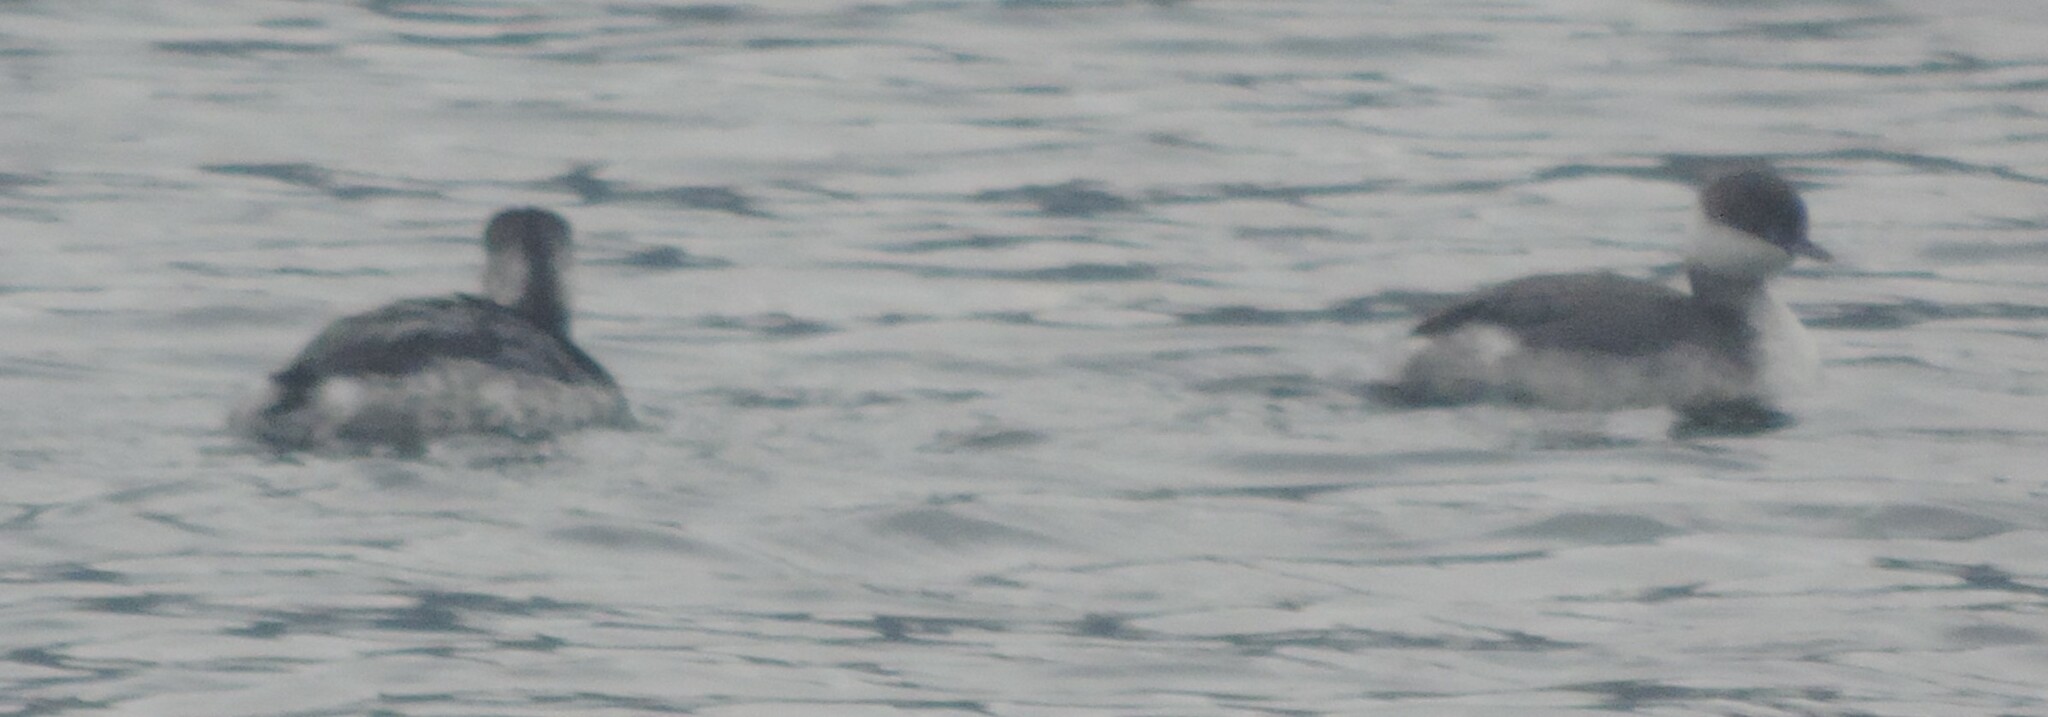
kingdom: Animalia
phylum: Chordata
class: Aves
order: Podicipediformes
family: Podicipedidae
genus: Podiceps
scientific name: Podiceps auritus
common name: Horned grebe
